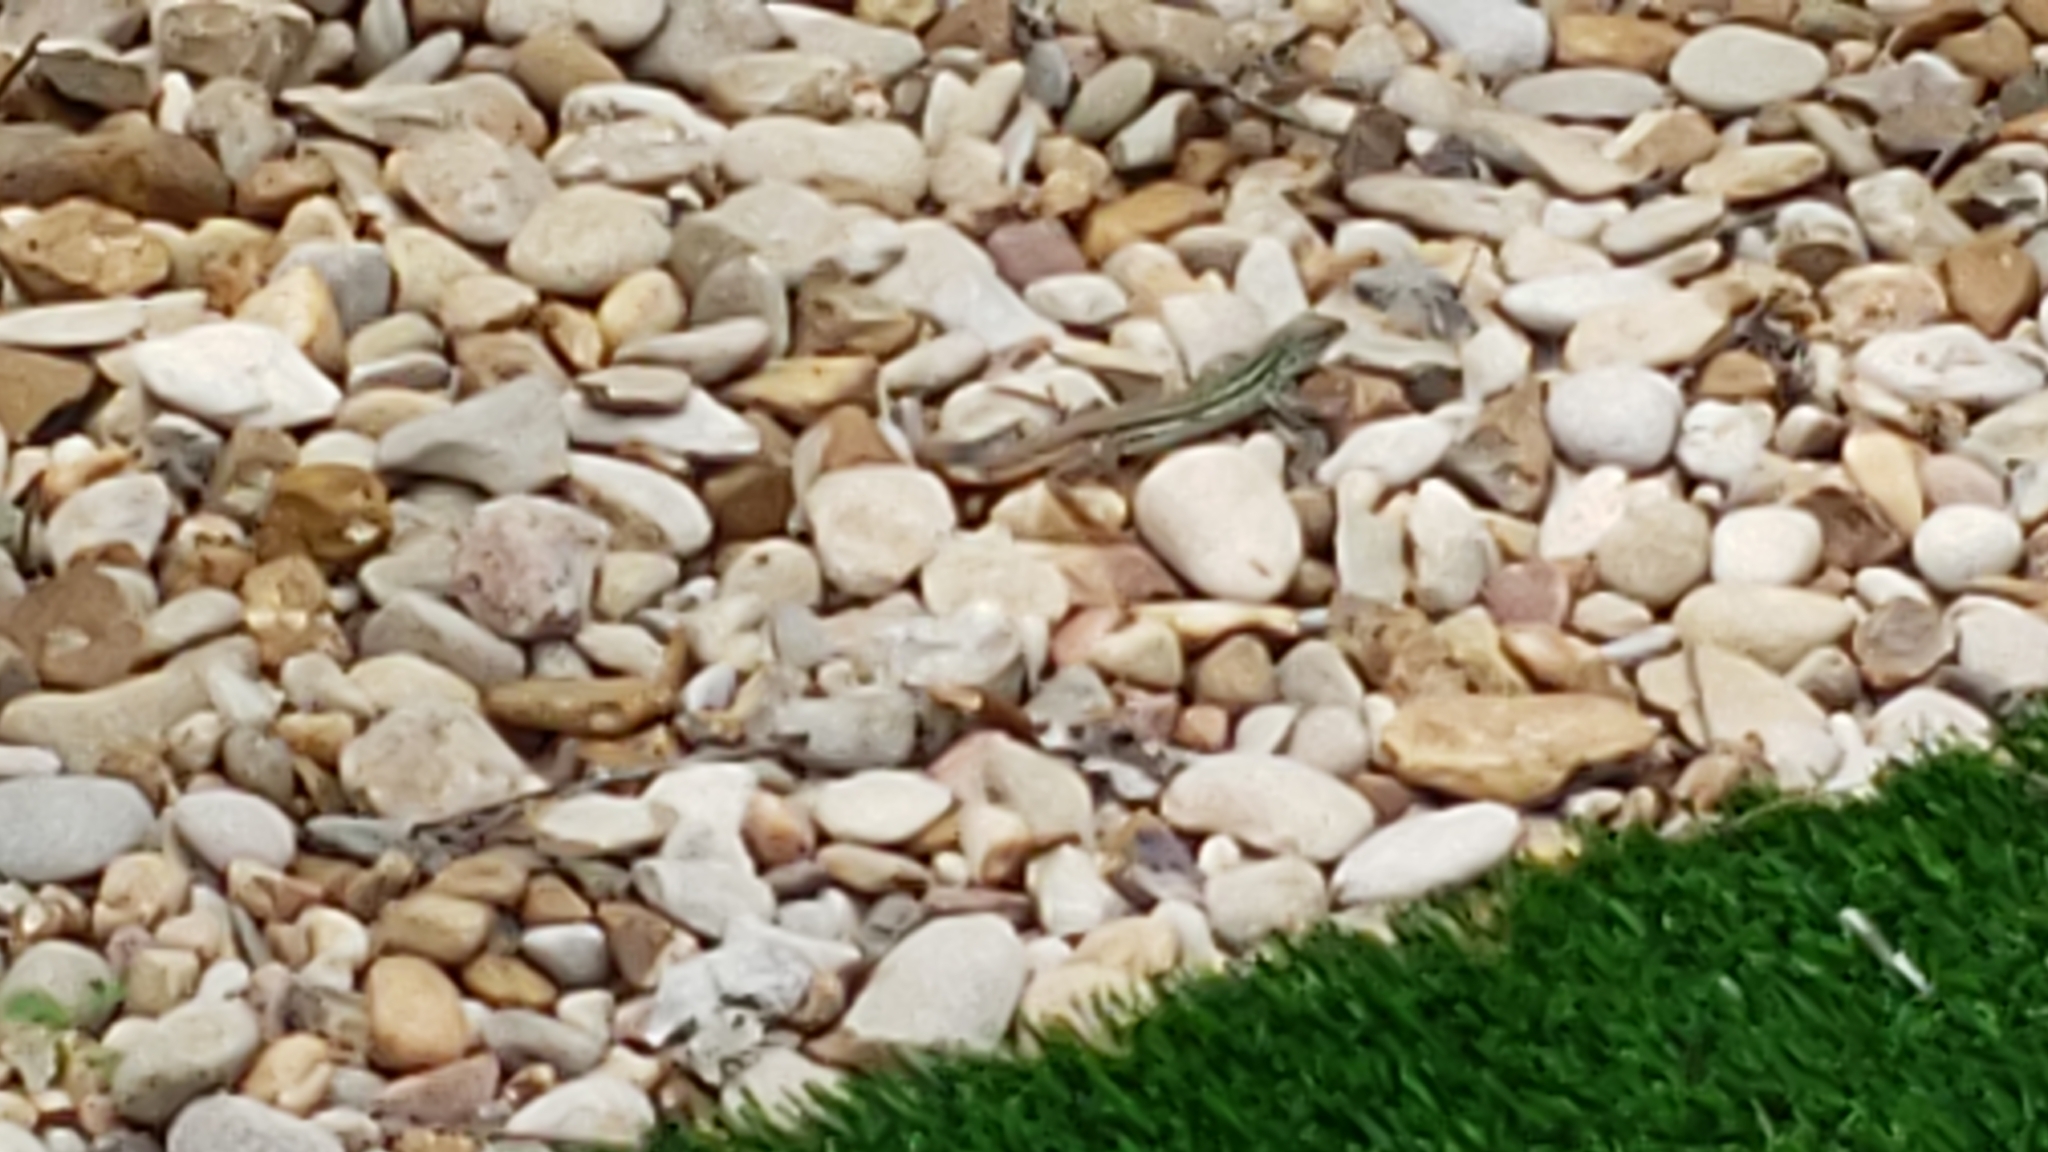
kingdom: Animalia
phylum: Chordata
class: Squamata
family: Teiidae
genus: Aspidoscelis
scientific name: Aspidoscelis gularis
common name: Eastern spotted whiptail
